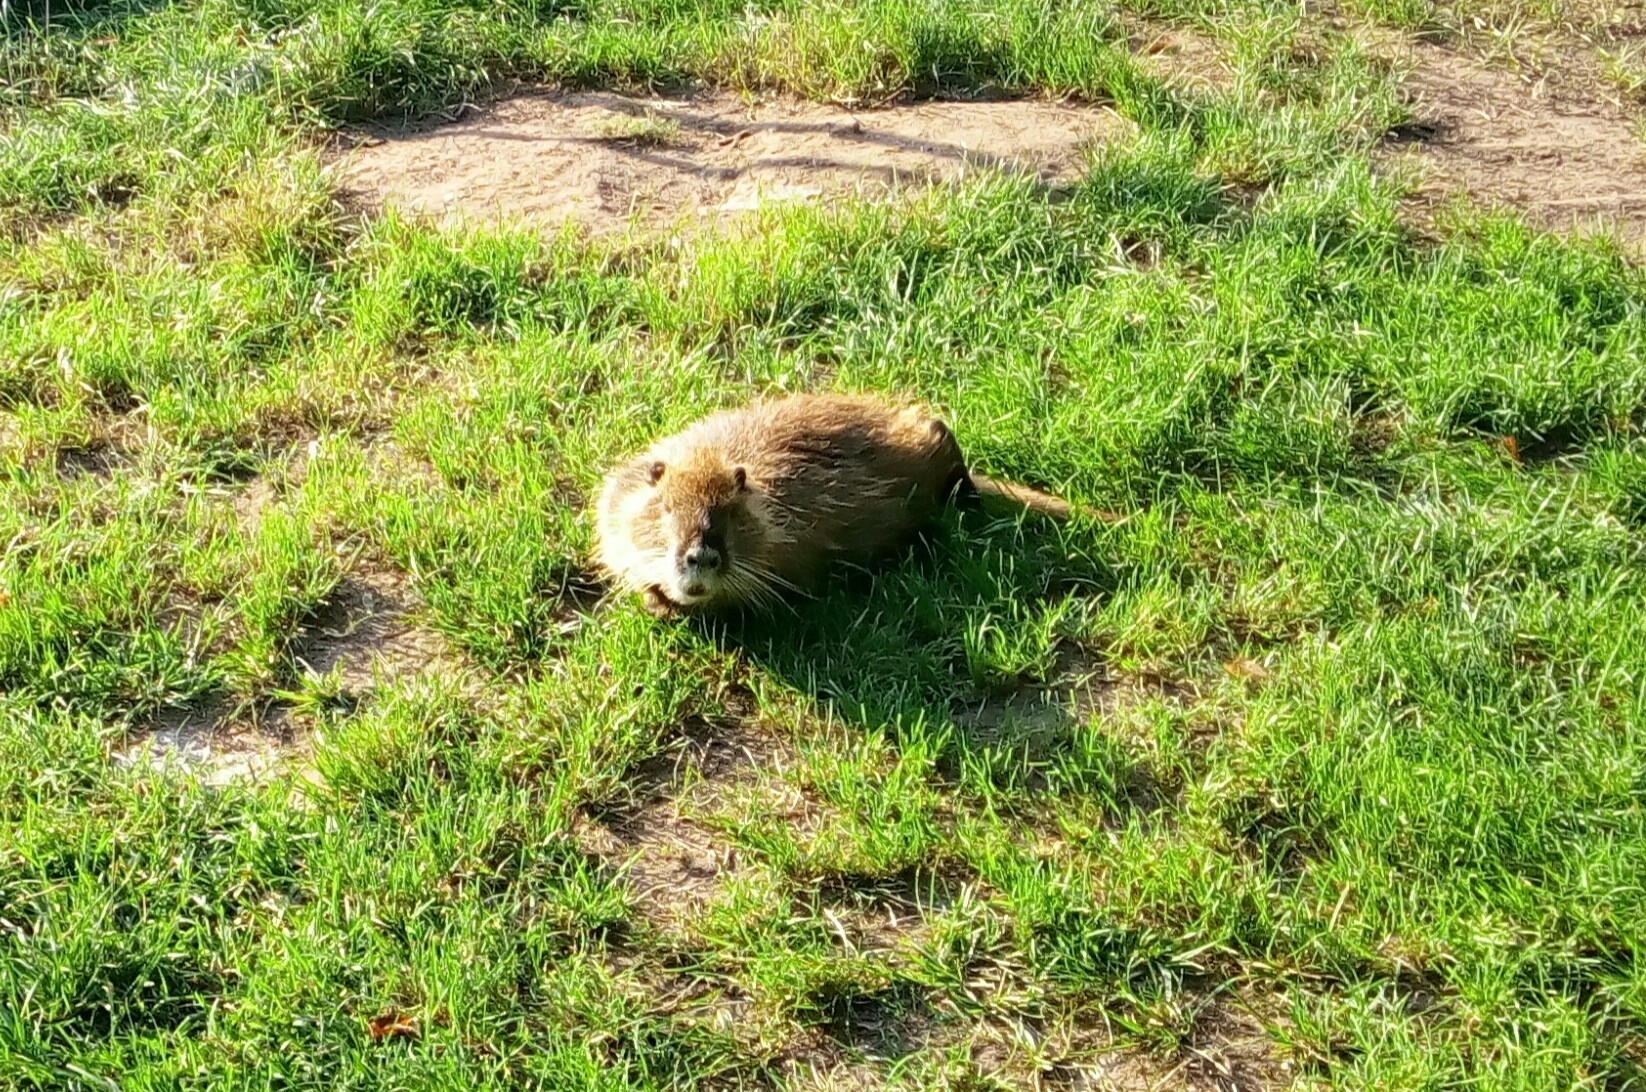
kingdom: Animalia
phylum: Chordata
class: Mammalia
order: Rodentia
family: Myocastoridae
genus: Myocastor
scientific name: Myocastor coypus
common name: Coypu
